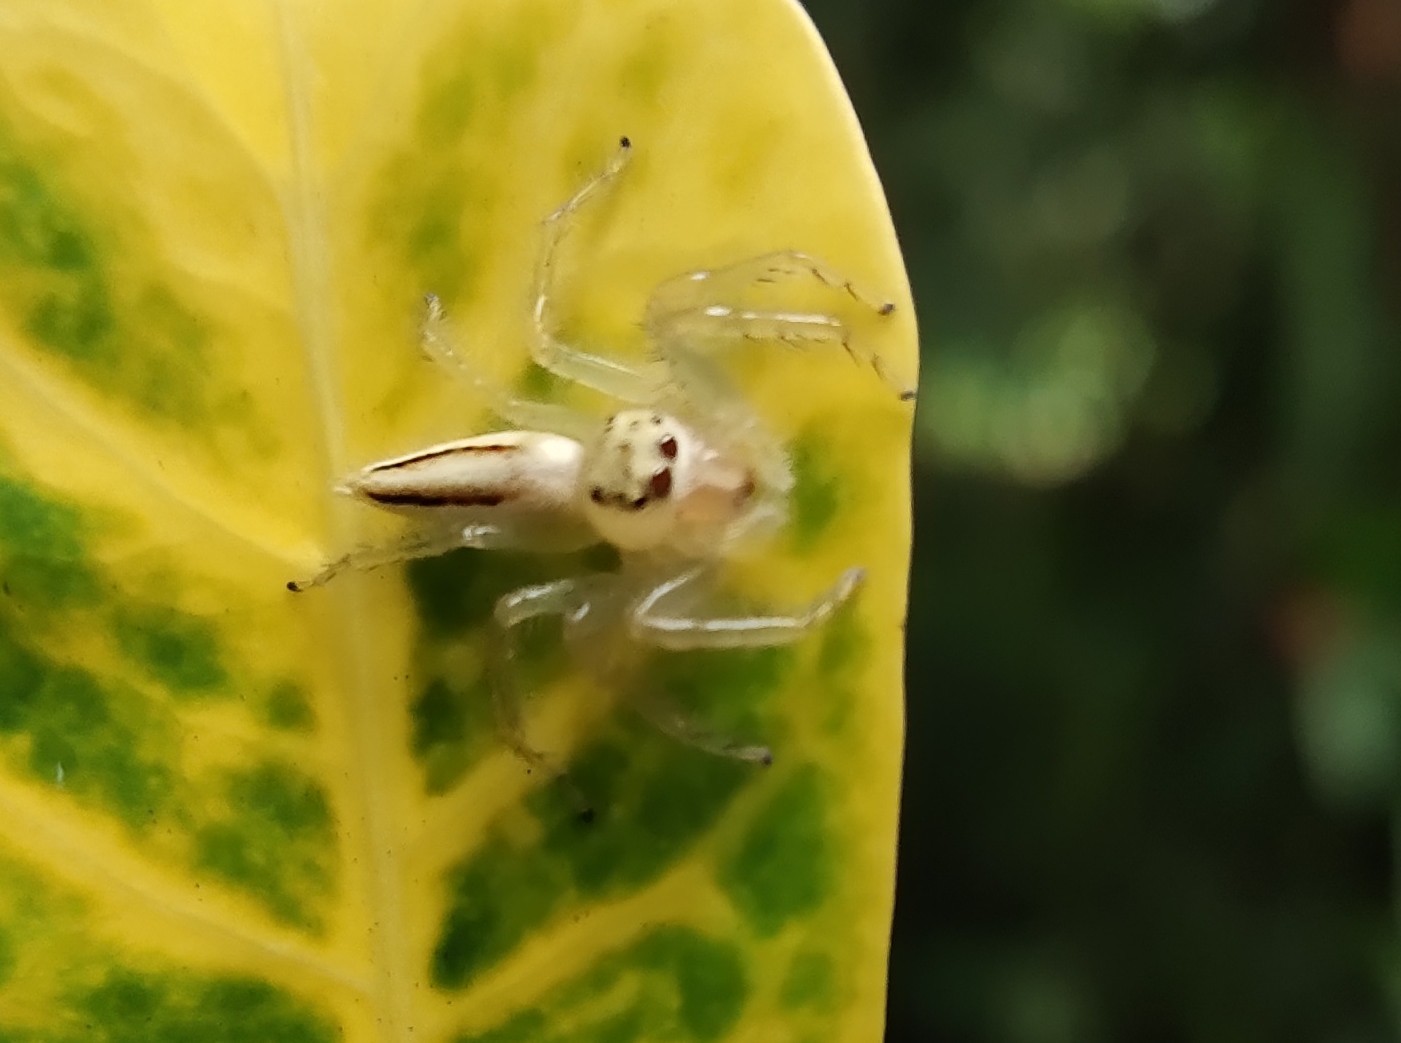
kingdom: Animalia
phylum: Arthropoda
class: Arachnida
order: Araneae
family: Salticidae
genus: Telamonia
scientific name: Telamonia dimidiata
